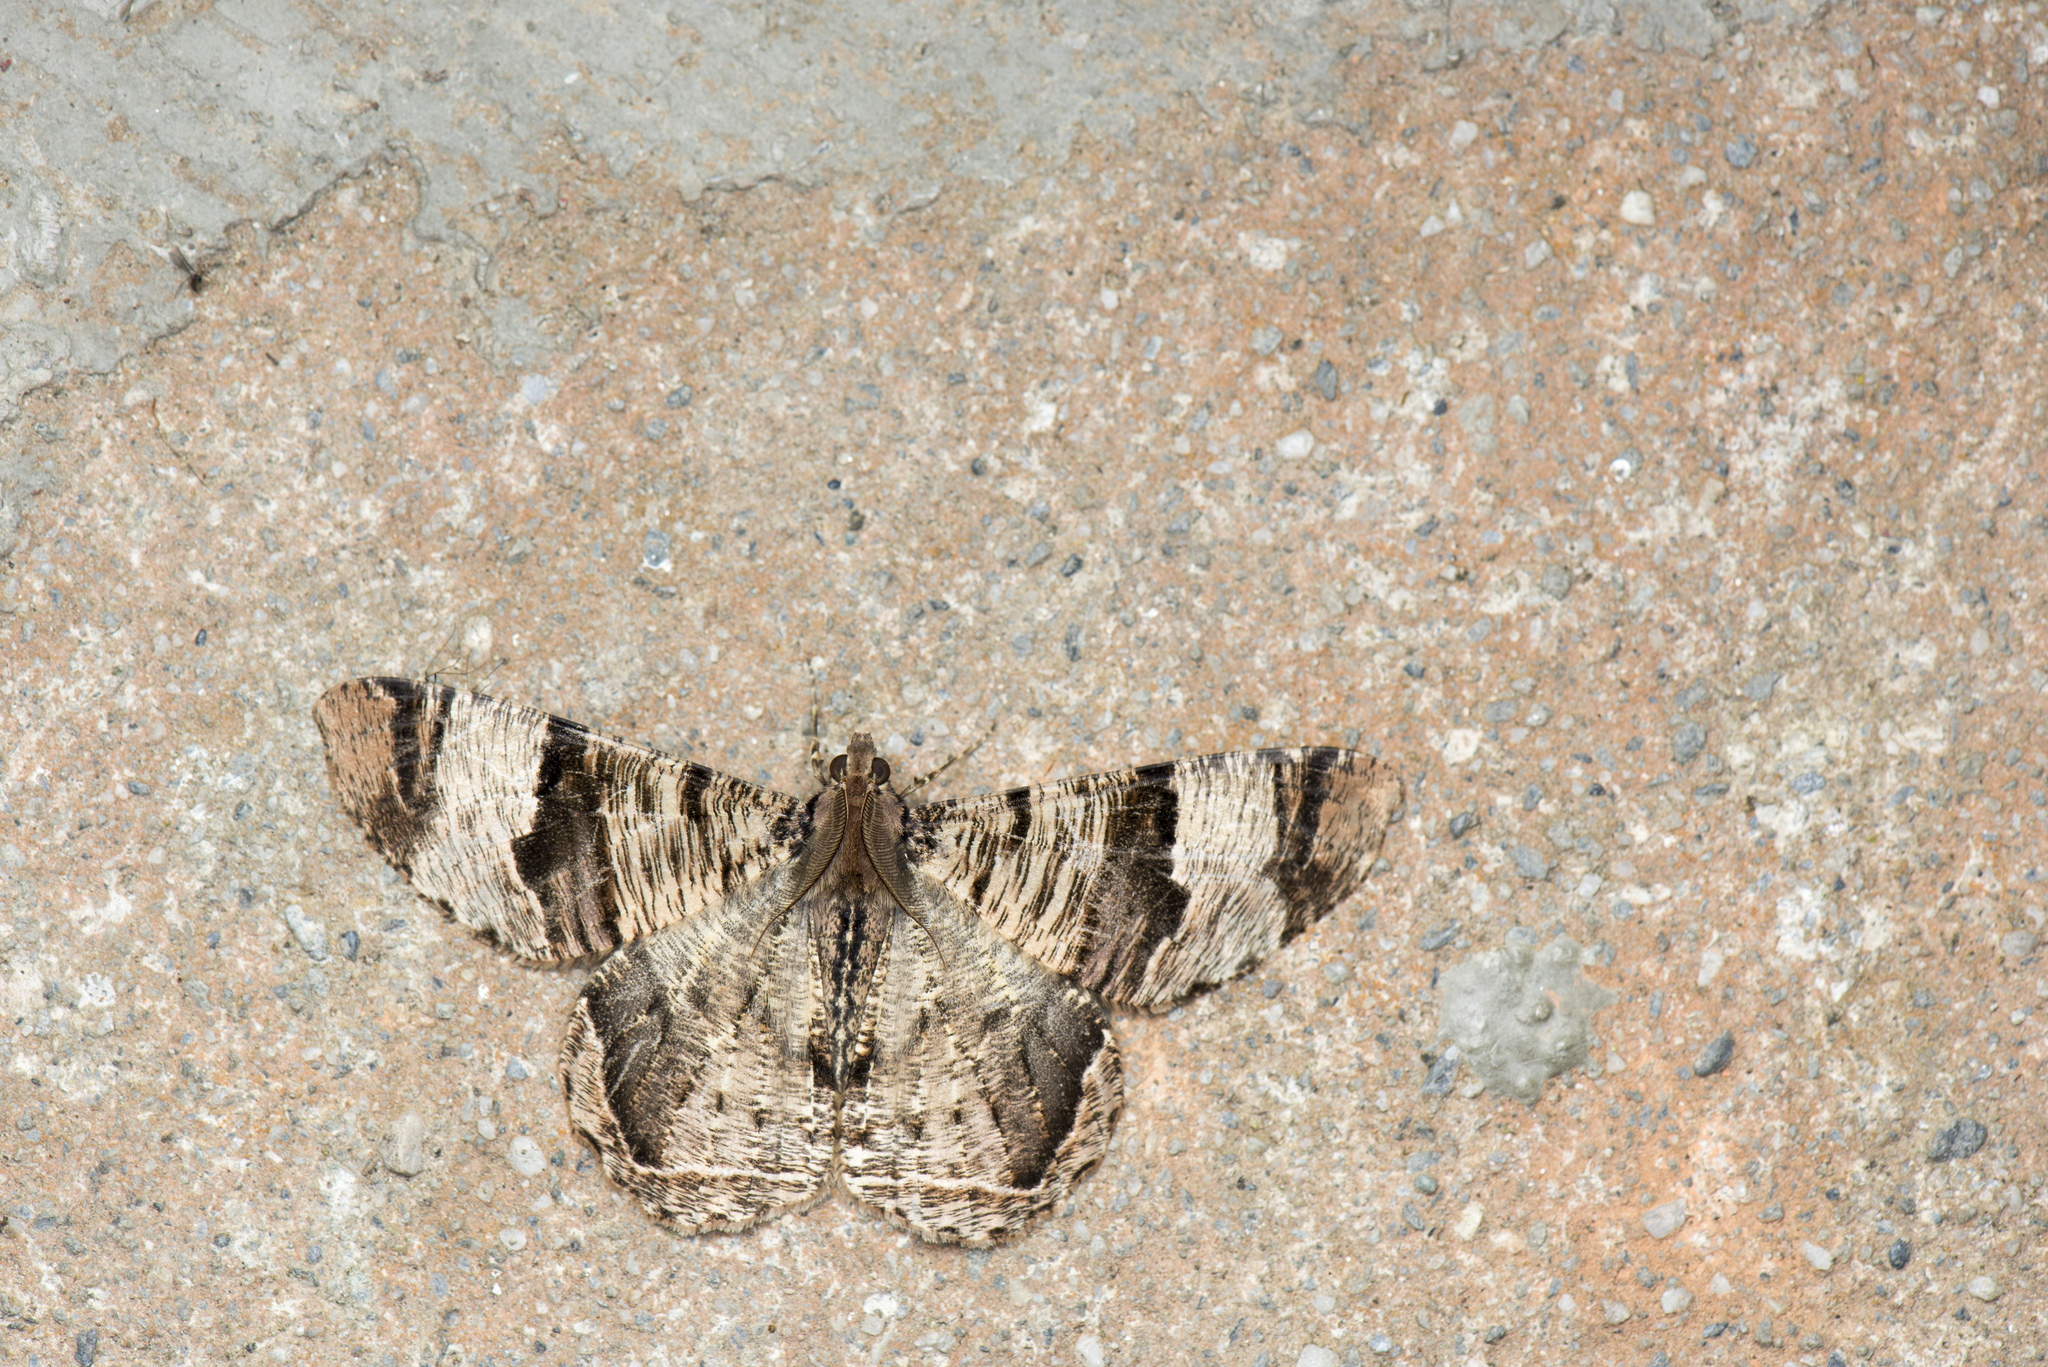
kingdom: Animalia
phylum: Arthropoda
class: Insecta
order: Lepidoptera
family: Geometridae
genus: Xandrames
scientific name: Xandrames latiferaria
